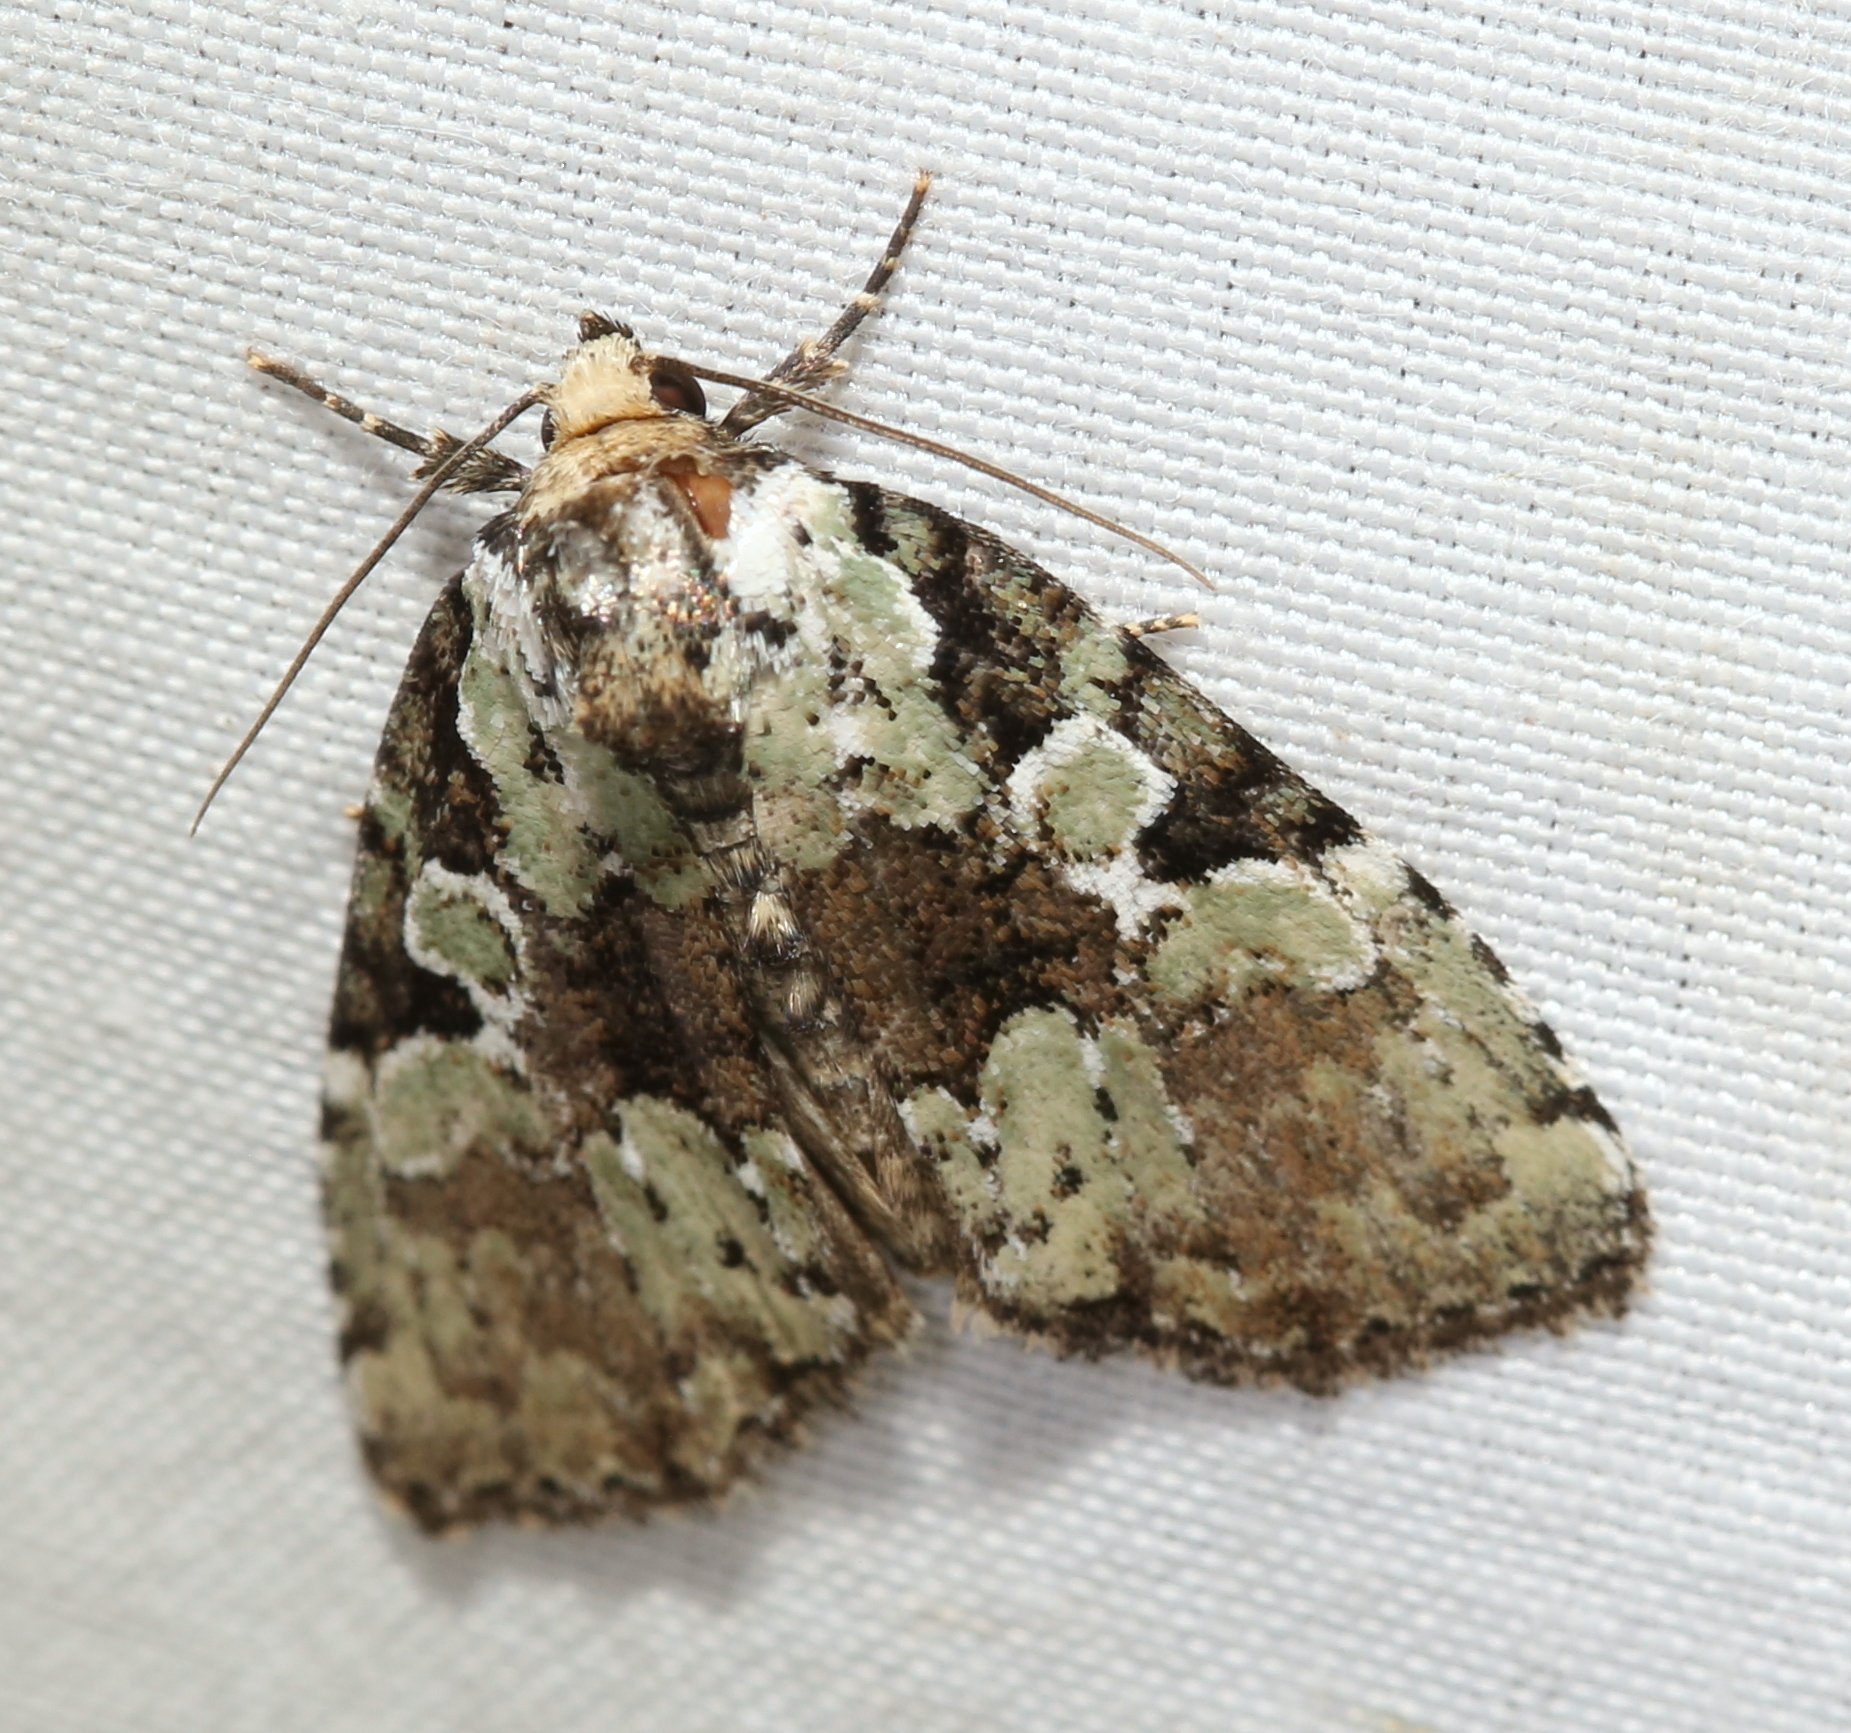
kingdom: Animalia
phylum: Arthropoda
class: Insecta
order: Lepidoptera
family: Noctuidae
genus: Leuconycta
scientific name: Leuconycta lepidula
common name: Marbled-green leuconycta moth
